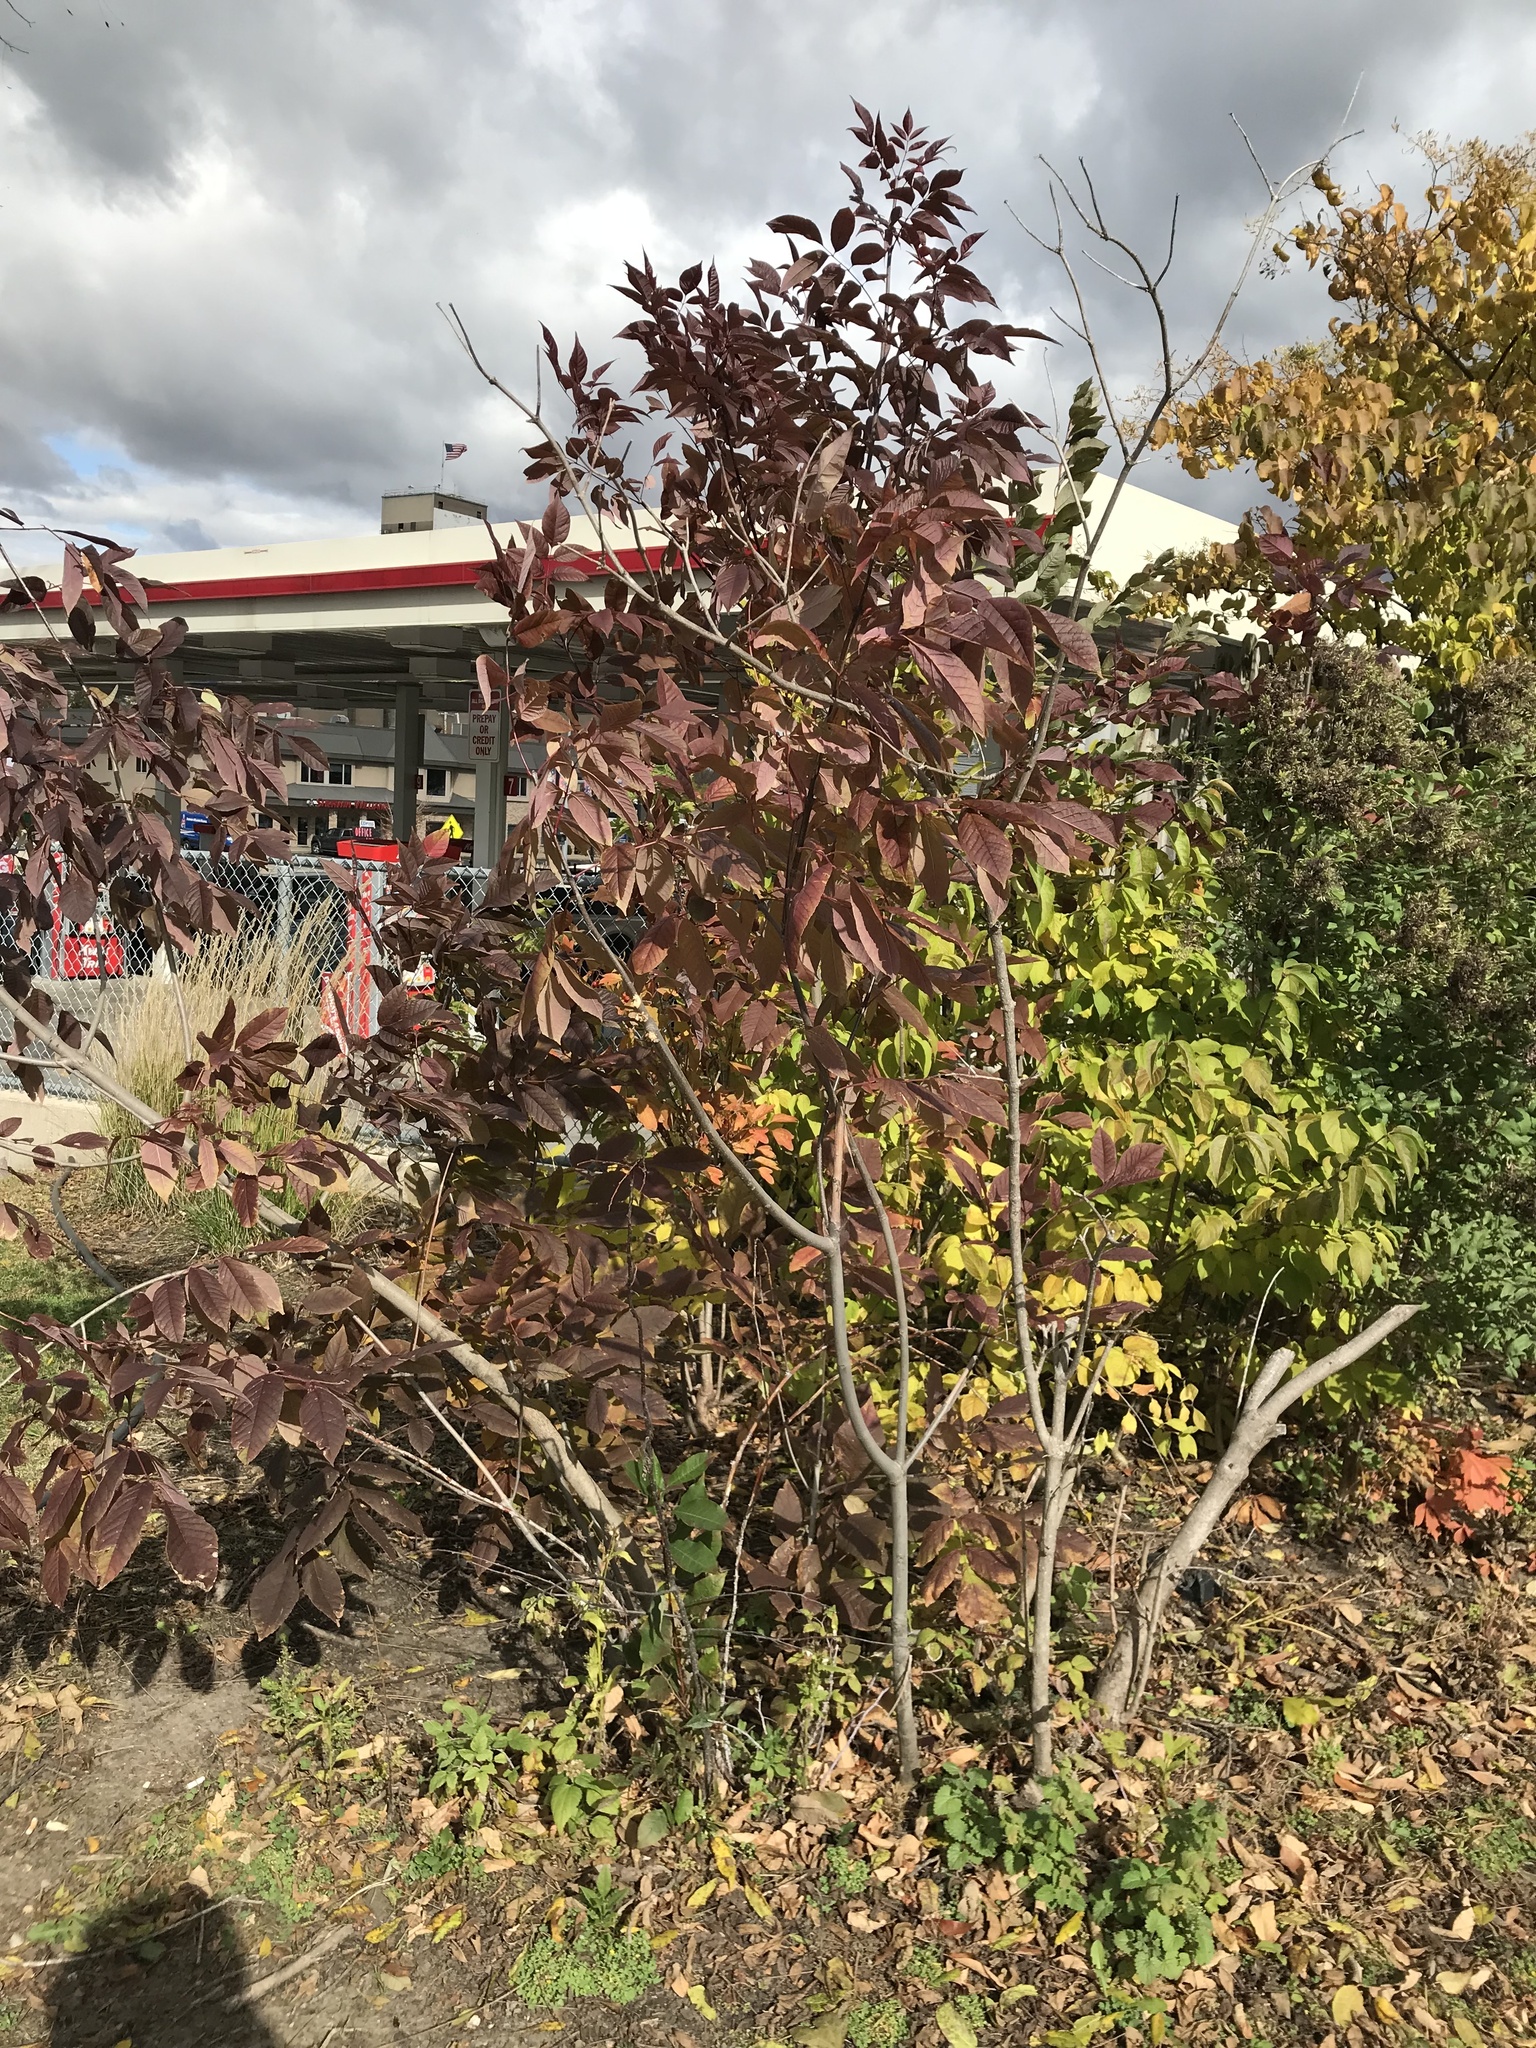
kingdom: Plantae
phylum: Tracheophyta
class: Magnoliopsida
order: Lamiales
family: Oleaceae
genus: Fraxinus
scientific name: Fraxinus americana
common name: White ash
